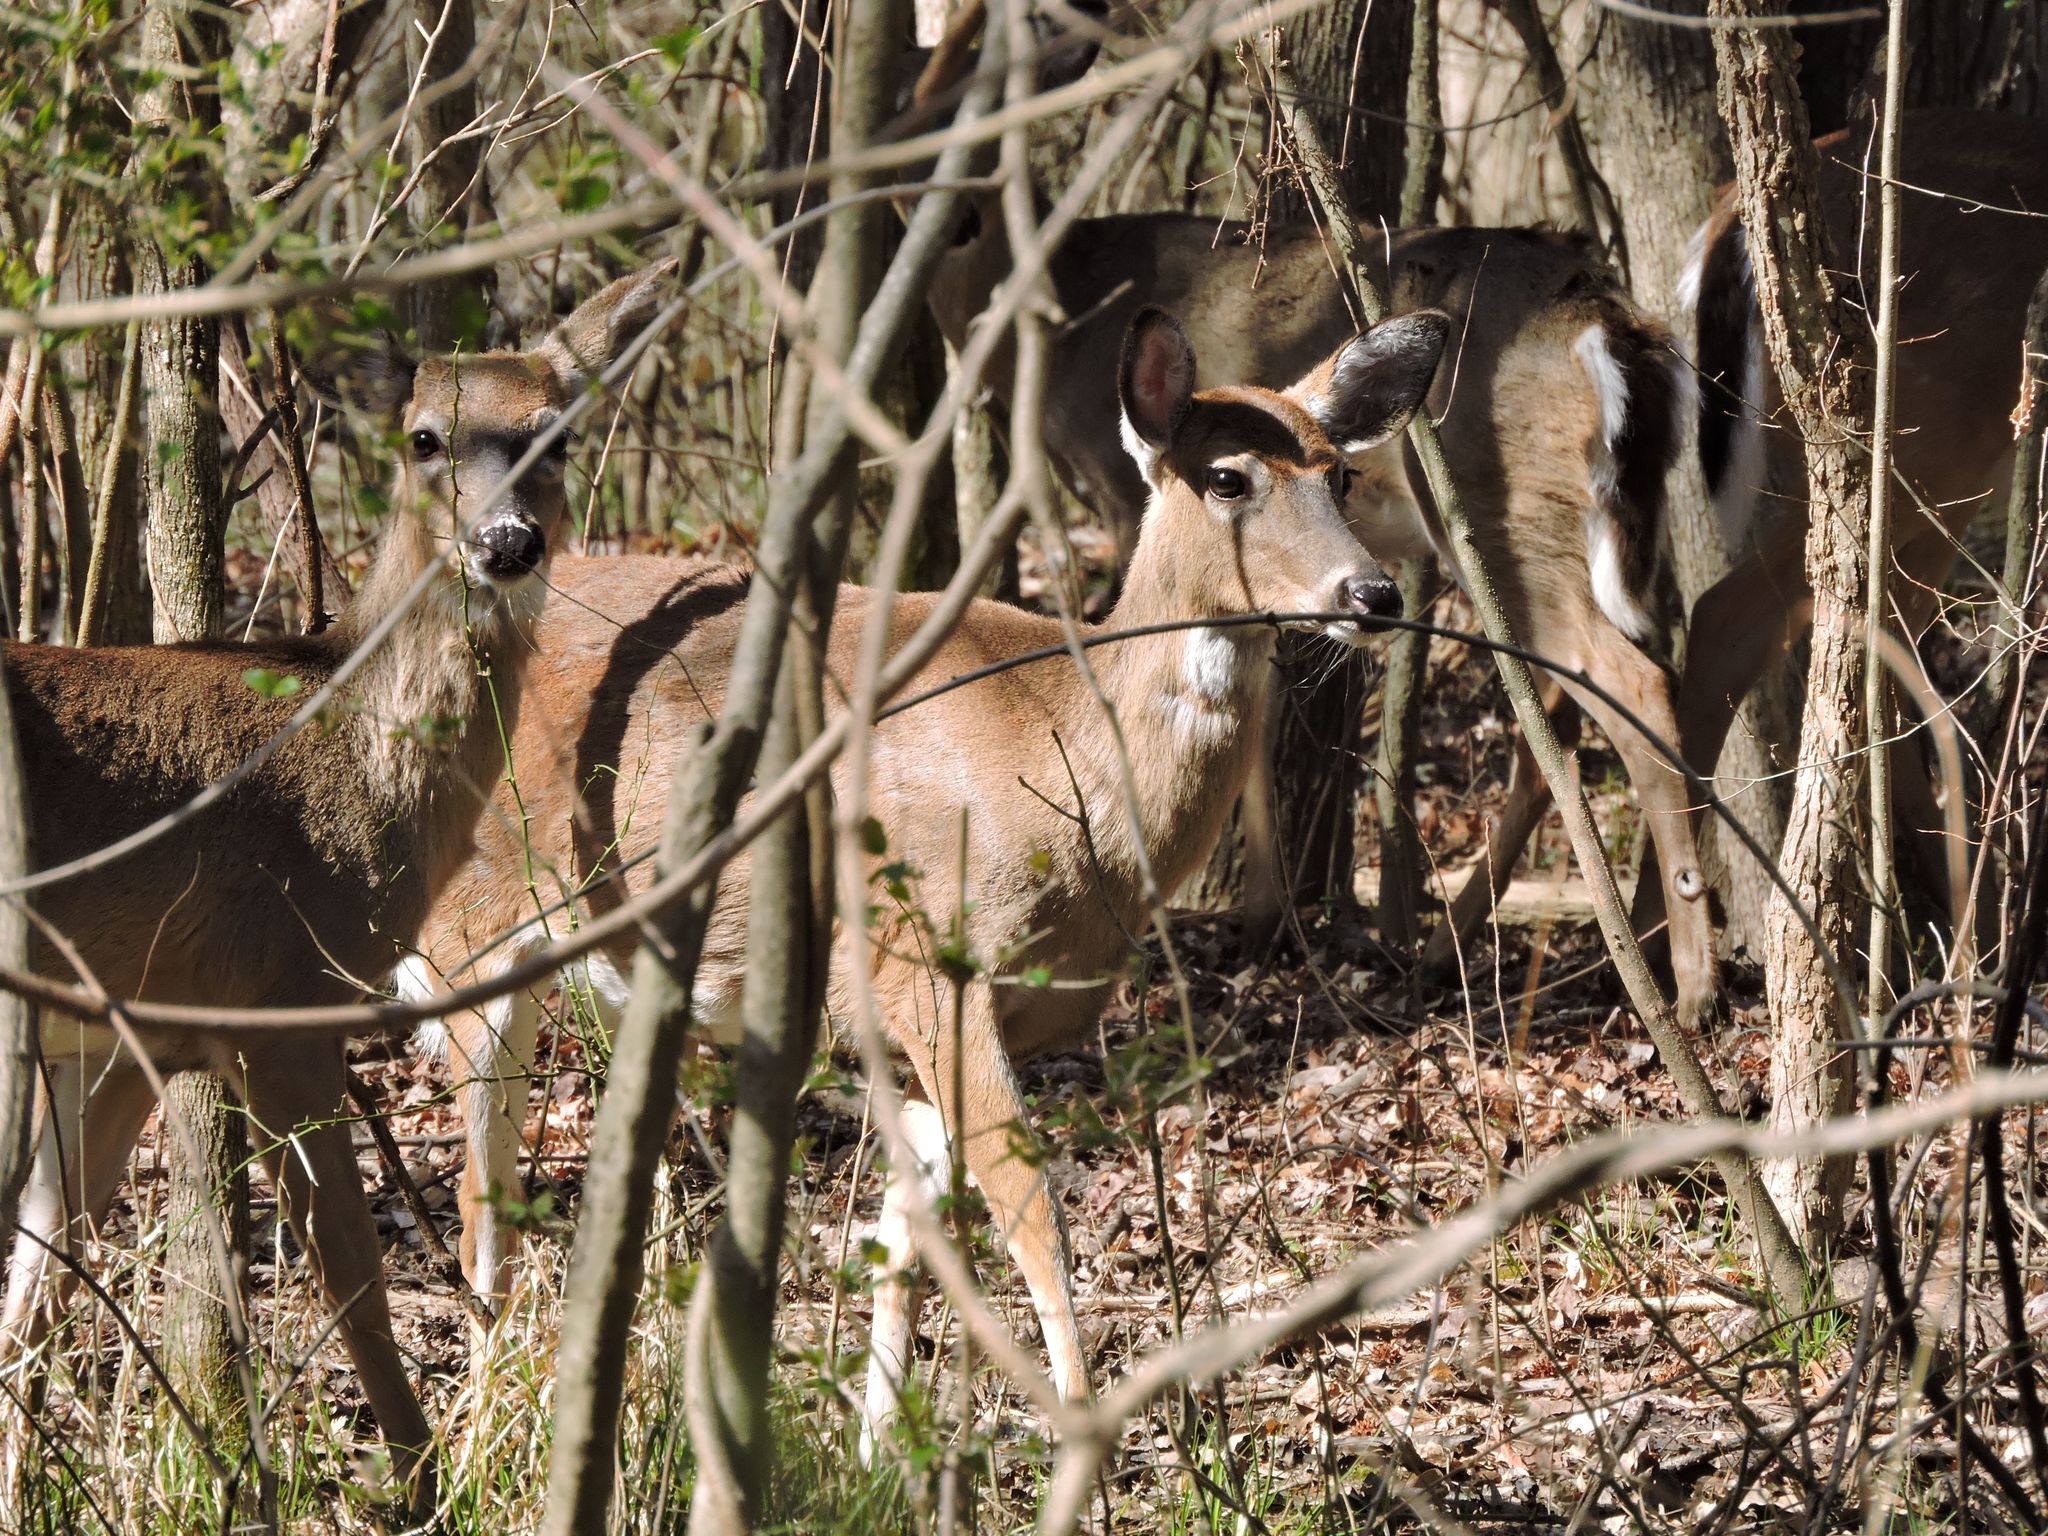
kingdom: Animalia
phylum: Chordata
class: Mammalia
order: Artiodactyla
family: Cervidae
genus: Odocoileus
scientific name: Odocoileus virginianus
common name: White-tailed deer
